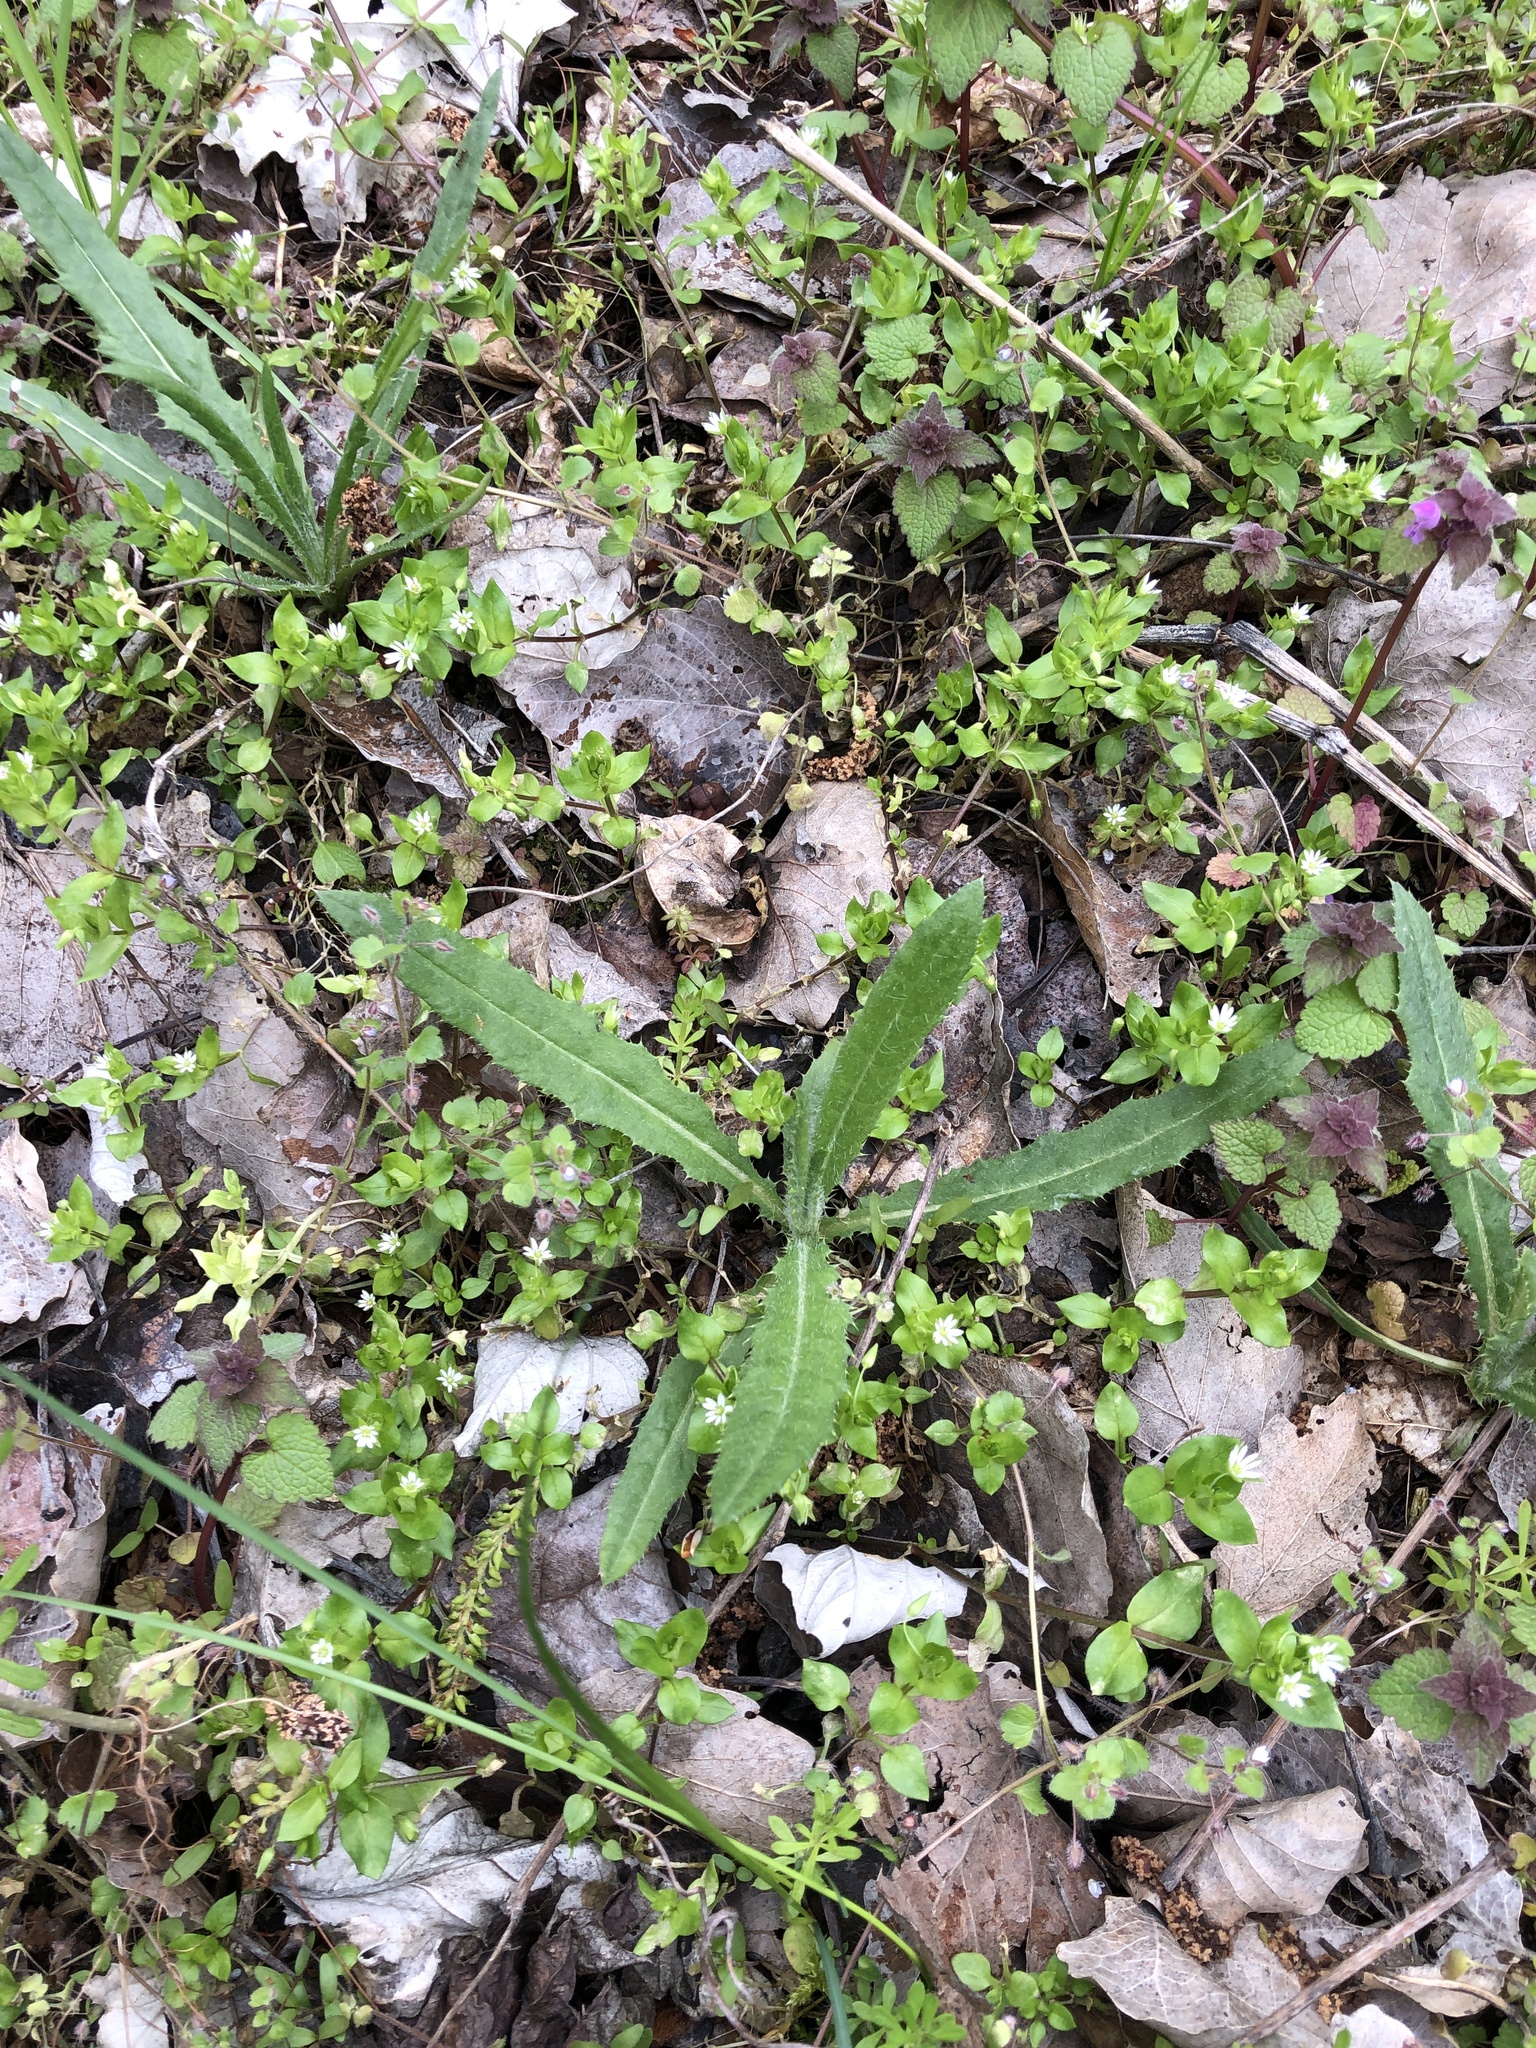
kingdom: Plantae
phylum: Tracheophyta
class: Magnoliopsida
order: Asterales
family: Asteraceae
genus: Cirsium
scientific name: Cirsium arvense
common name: Creeping thistle
